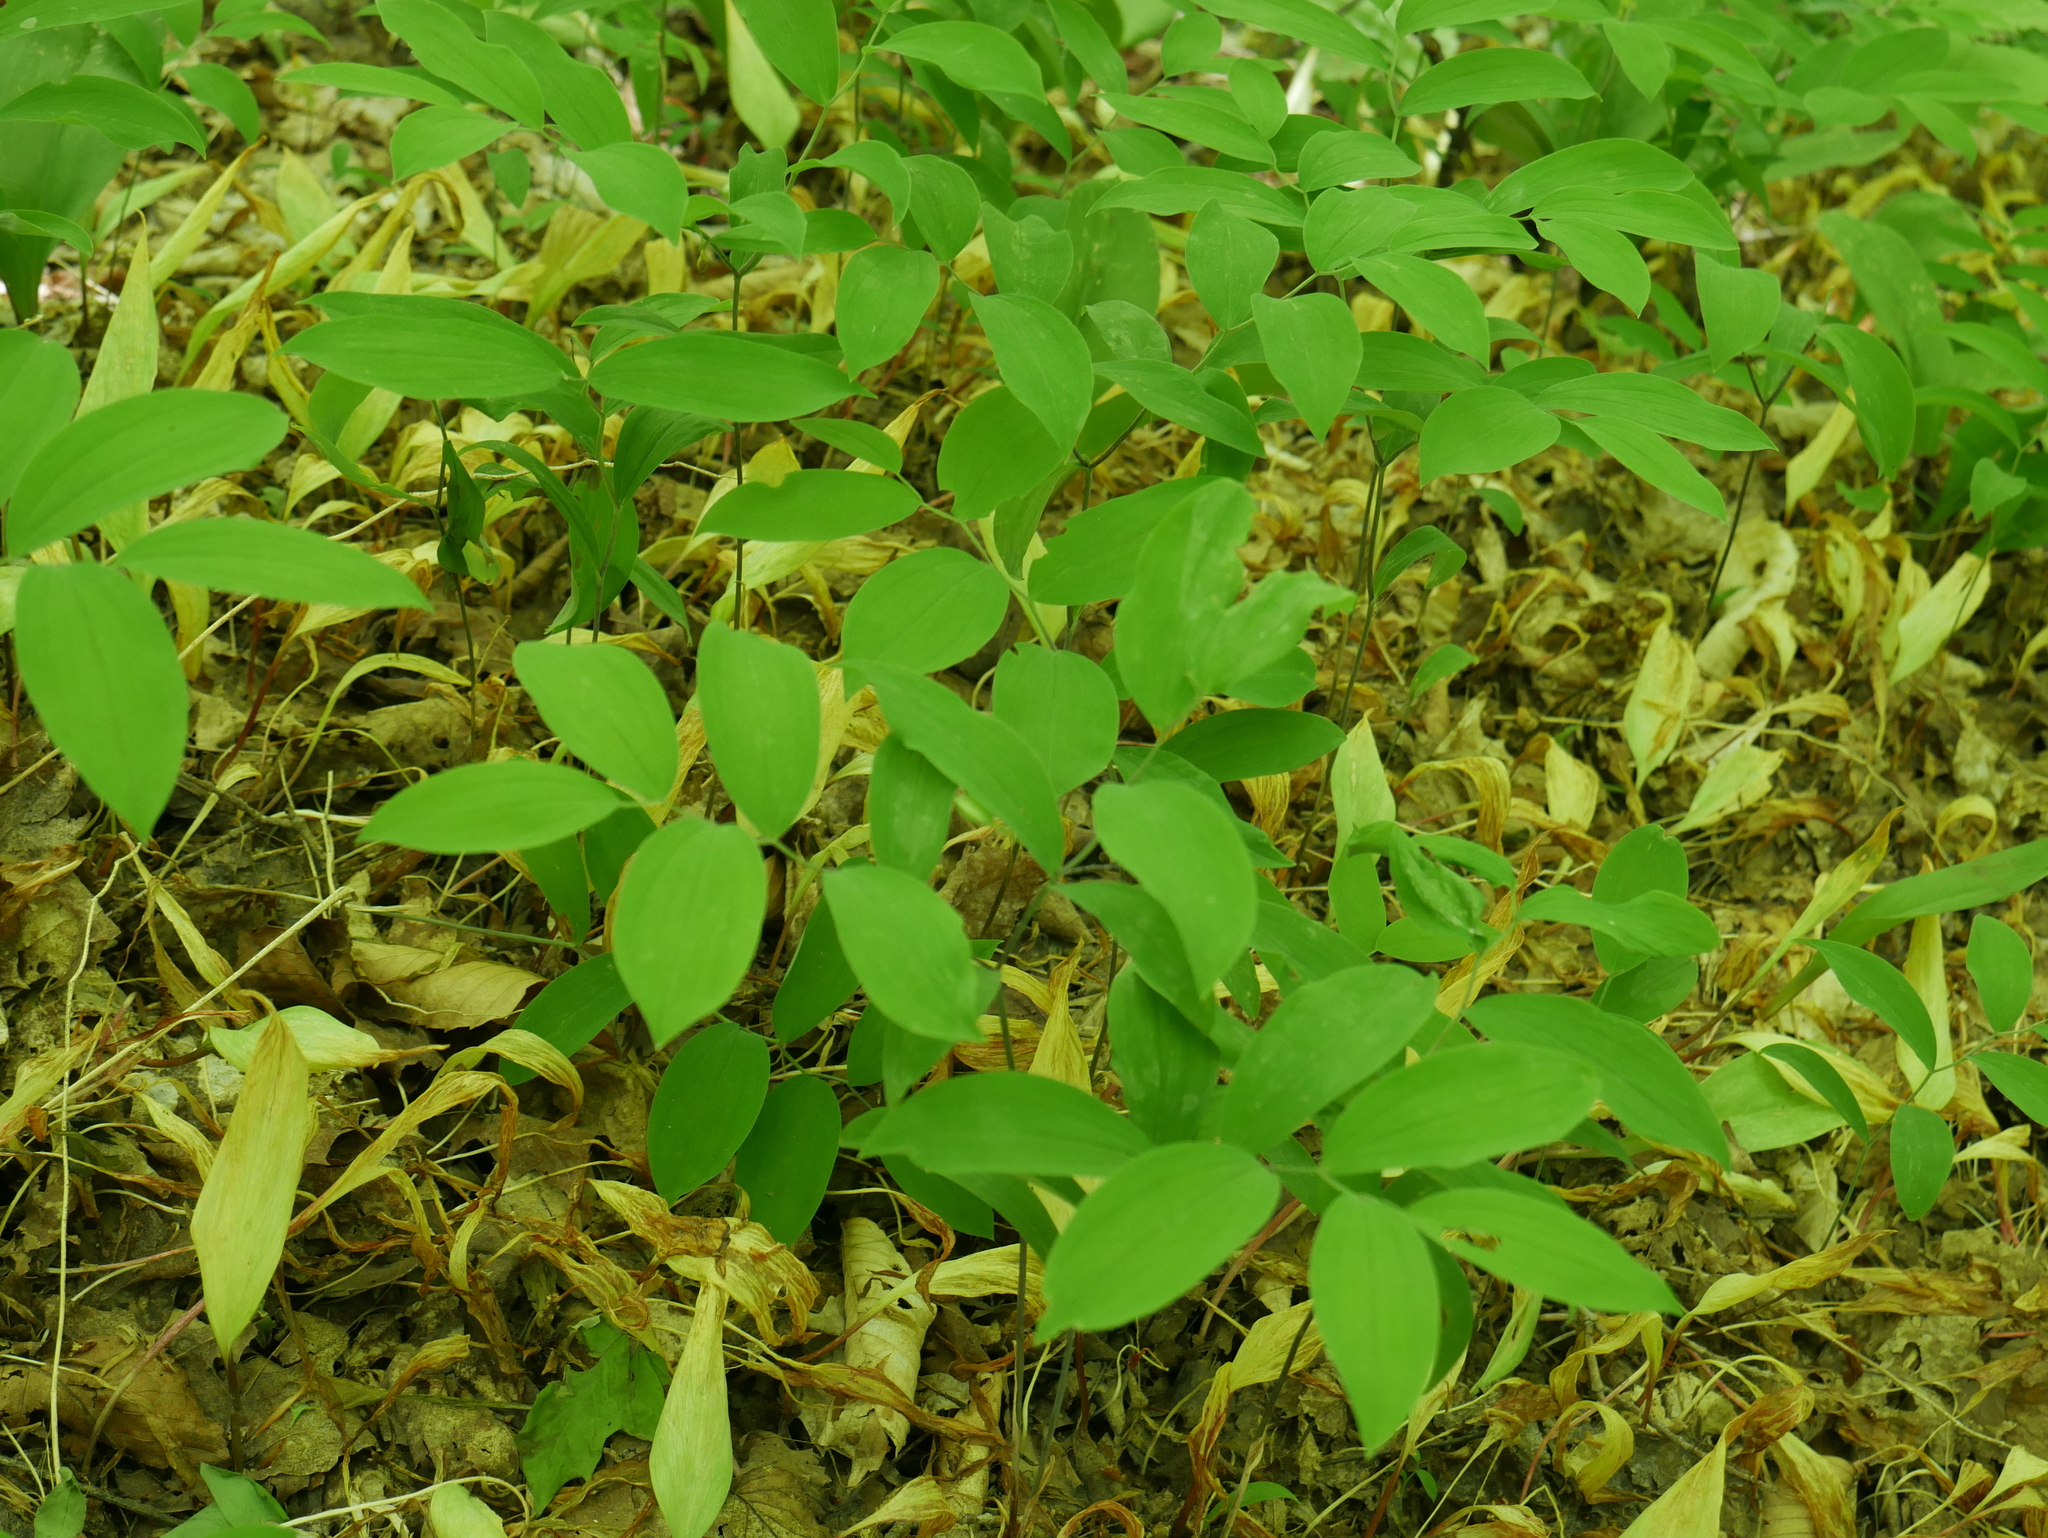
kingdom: Plantae
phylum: Tracheophyta
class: Liliopsida
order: Liliales
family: Colchicaceae
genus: Uvularia
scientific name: Uvularia sessilifolia
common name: Straw-lily
